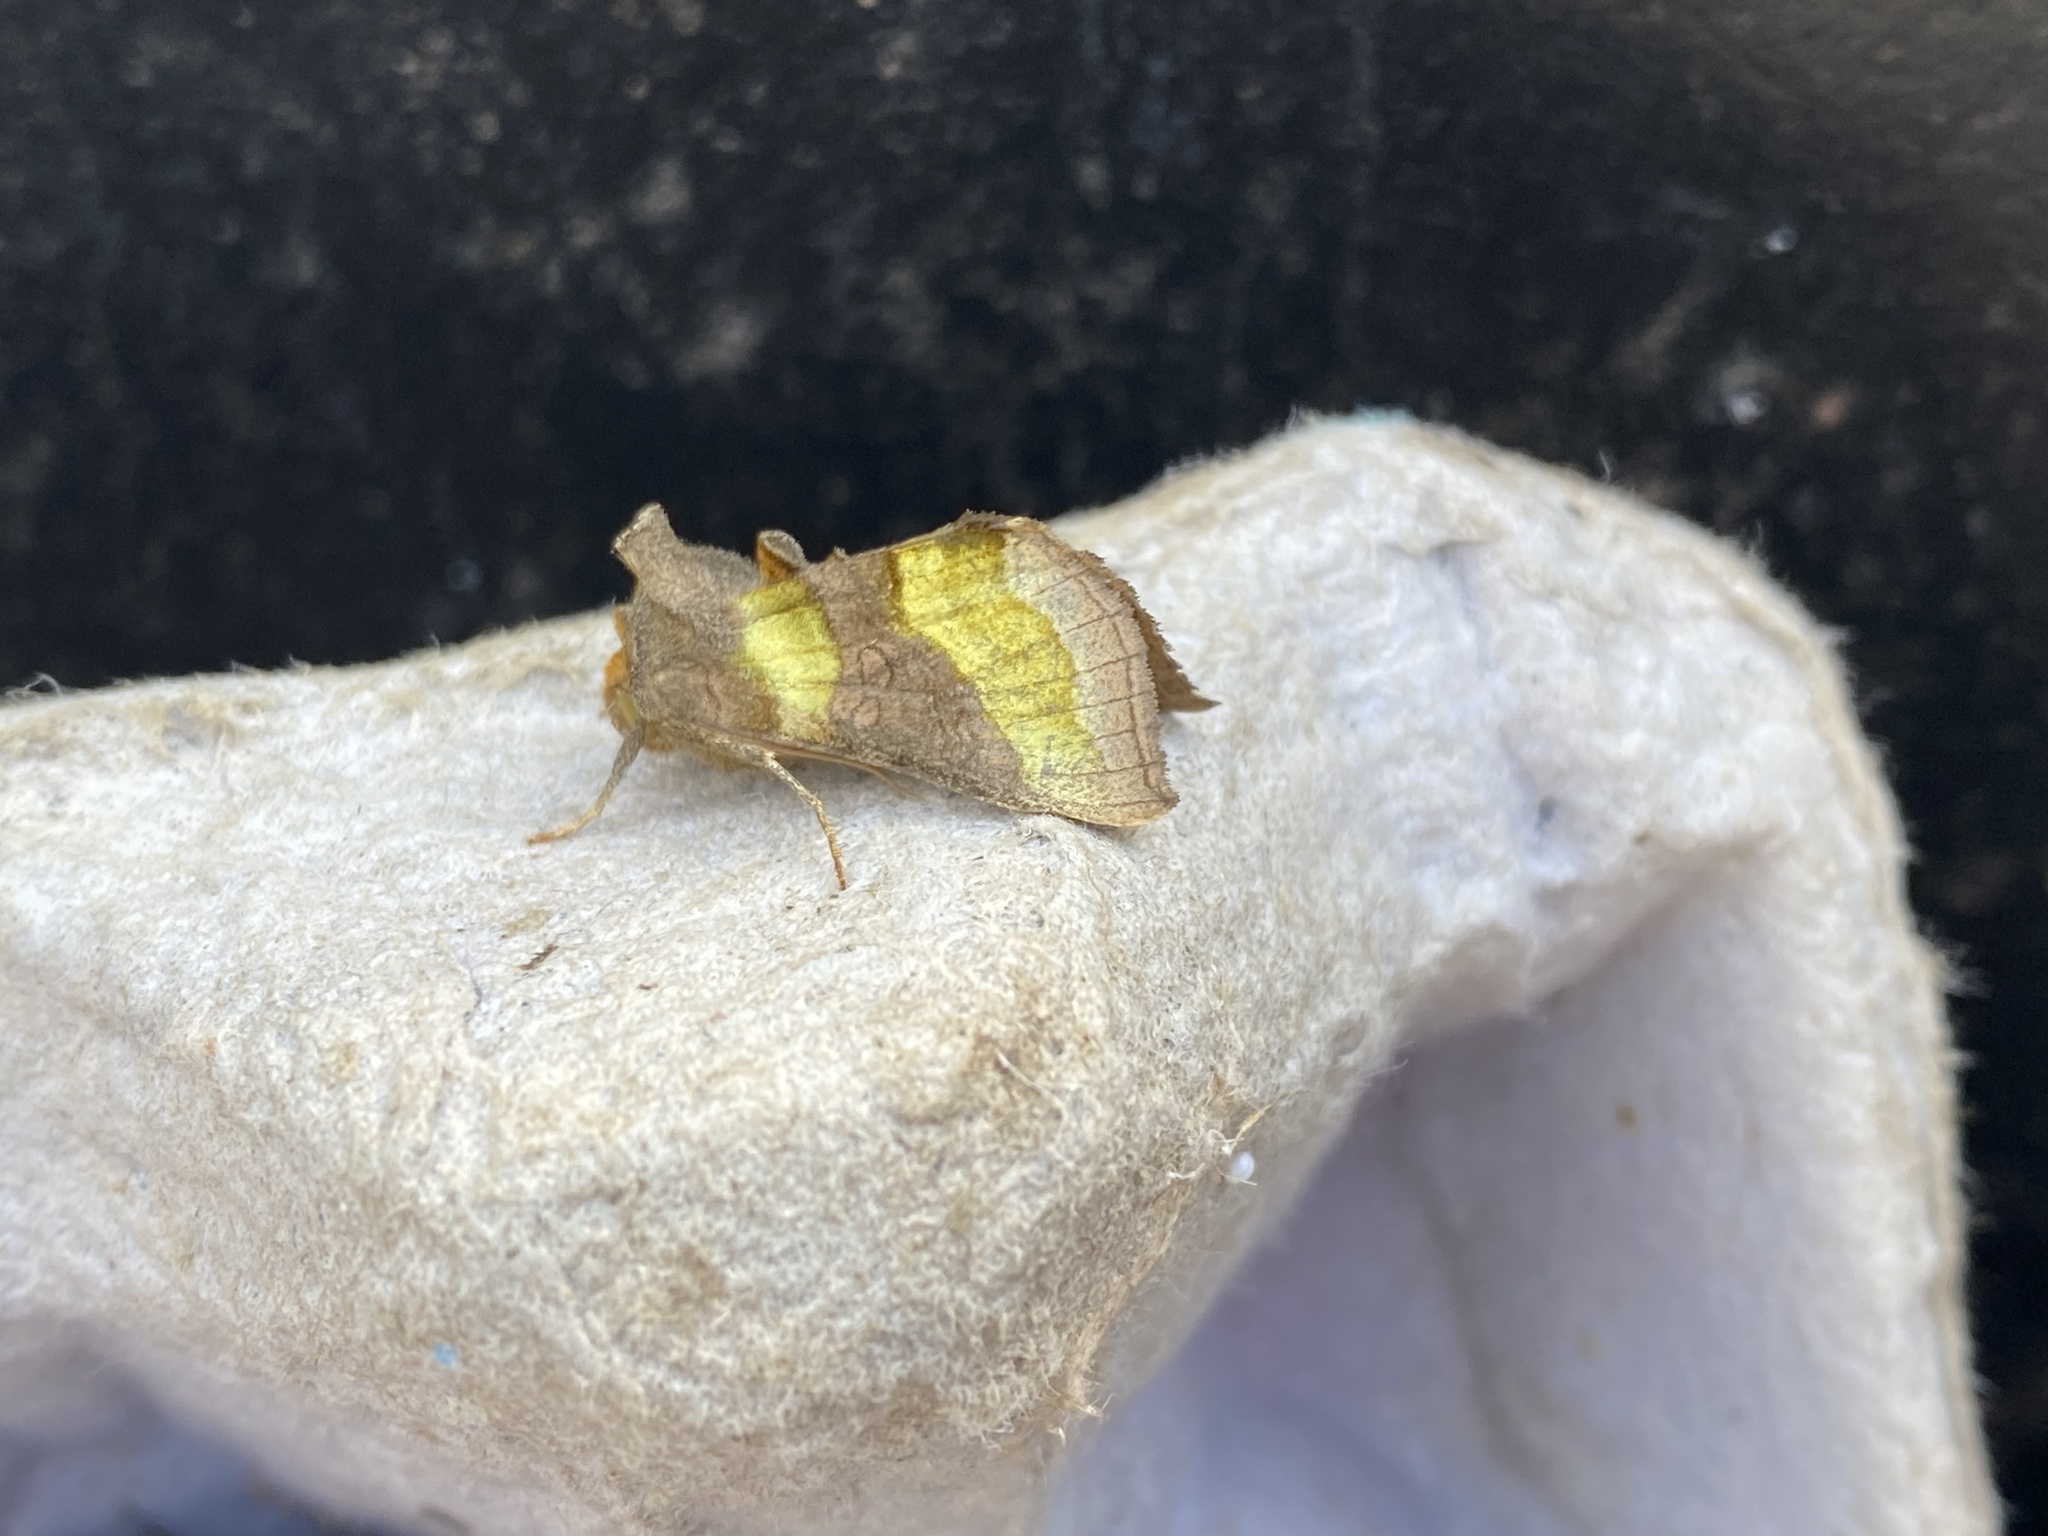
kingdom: Animalia
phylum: Arthropoda
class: Insecta
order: Lepidoptera
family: Noctuidae
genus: Diachrysia
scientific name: Diachrysia chrysitis
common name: Burnished brass
